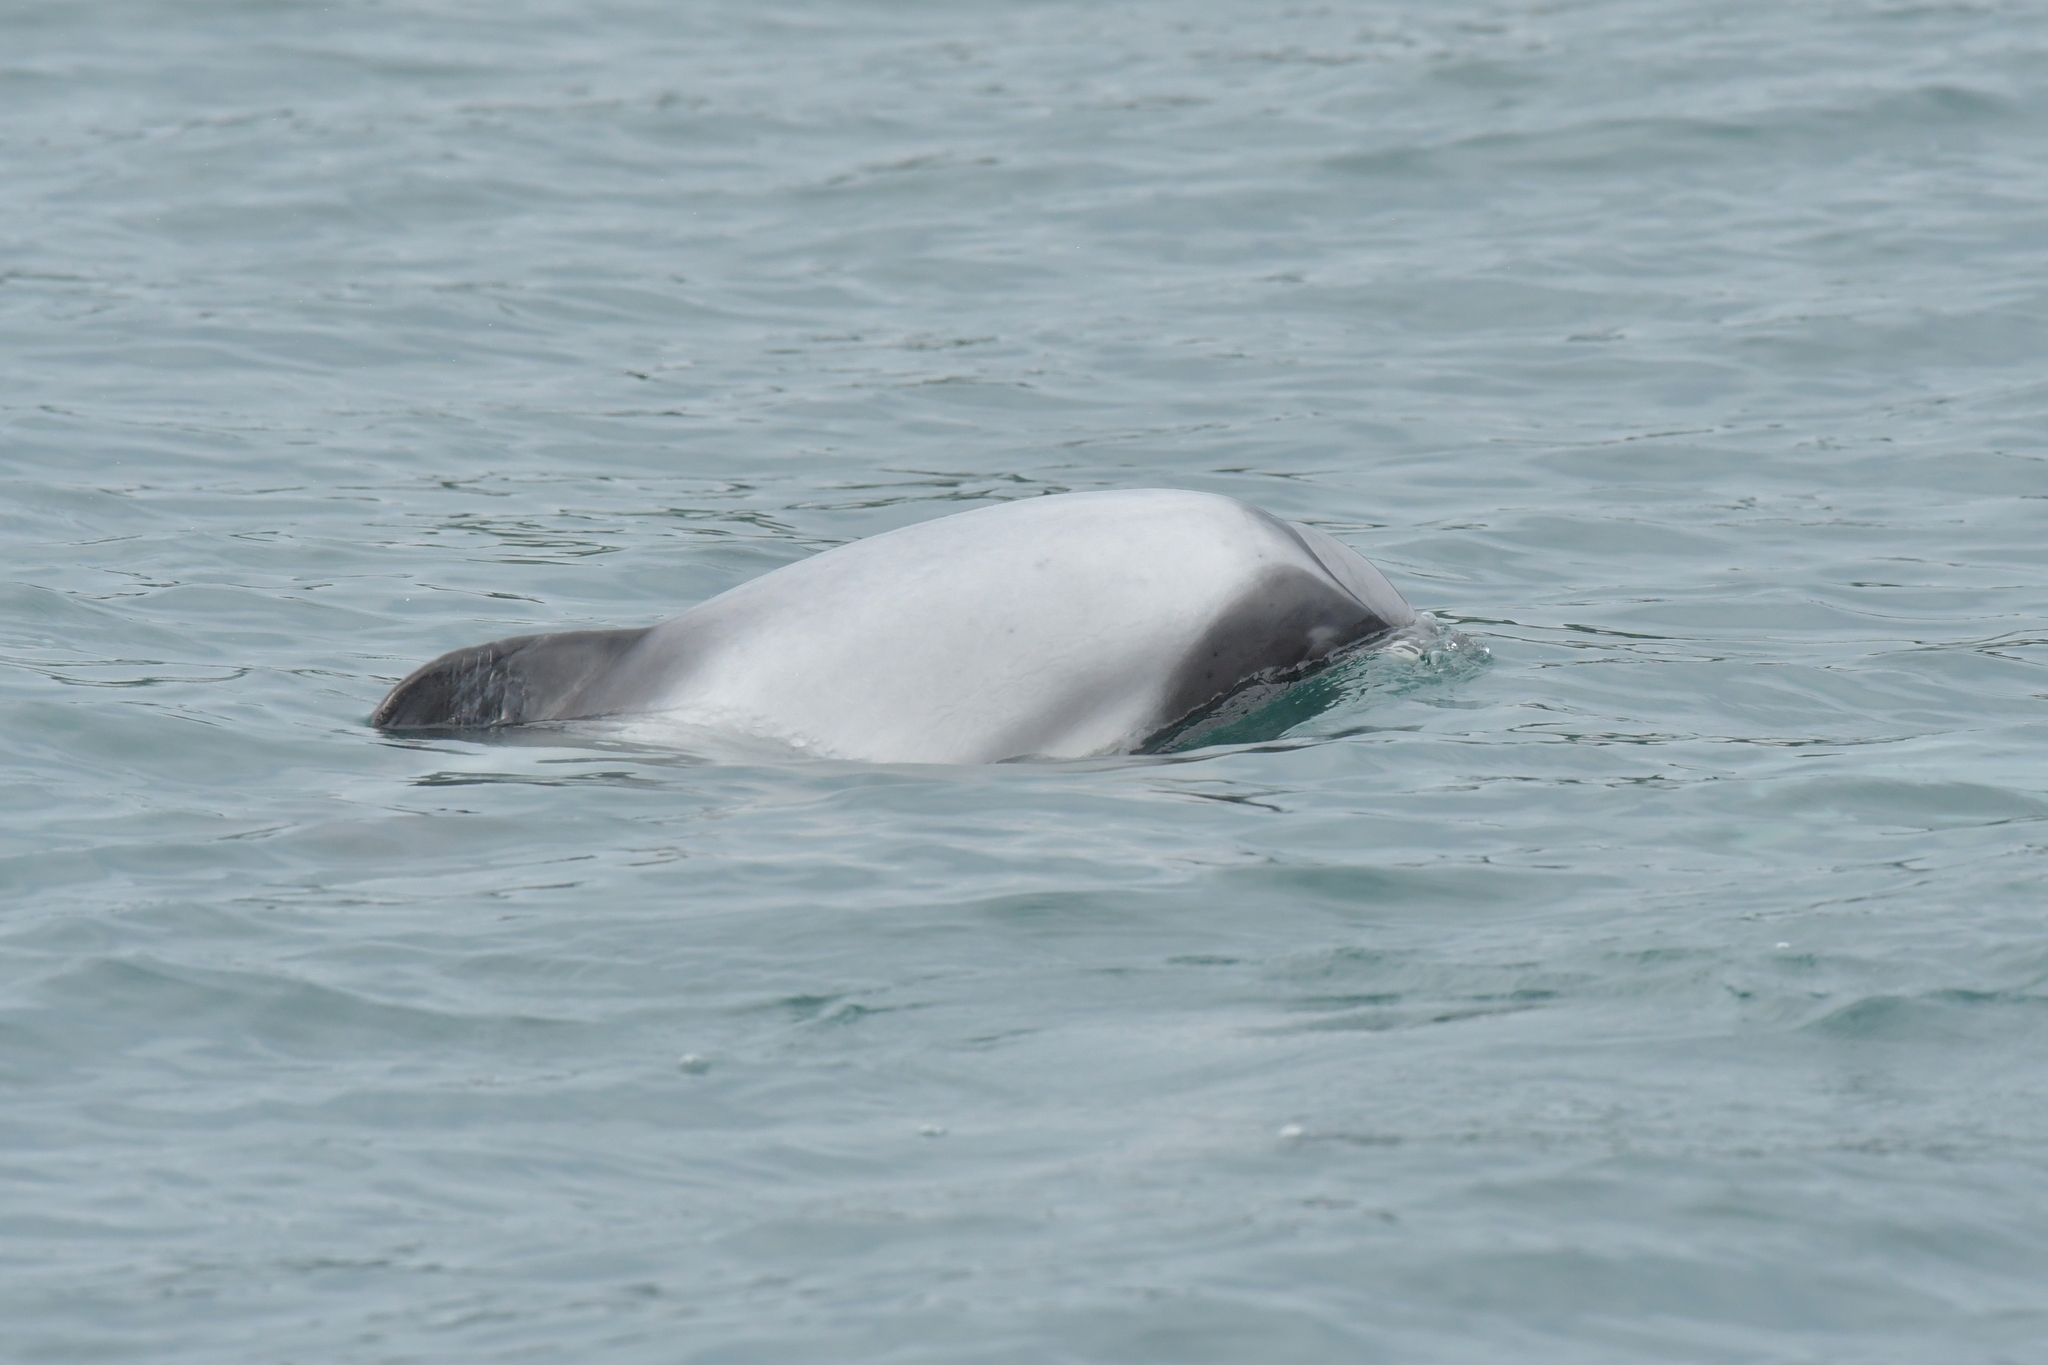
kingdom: Animalia
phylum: Chordata
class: Mammalia
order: Cetacea
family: Delphinidae
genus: Cephalorhynchus
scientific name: Cephalorhynchus hectori
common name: Hector's dolphin
